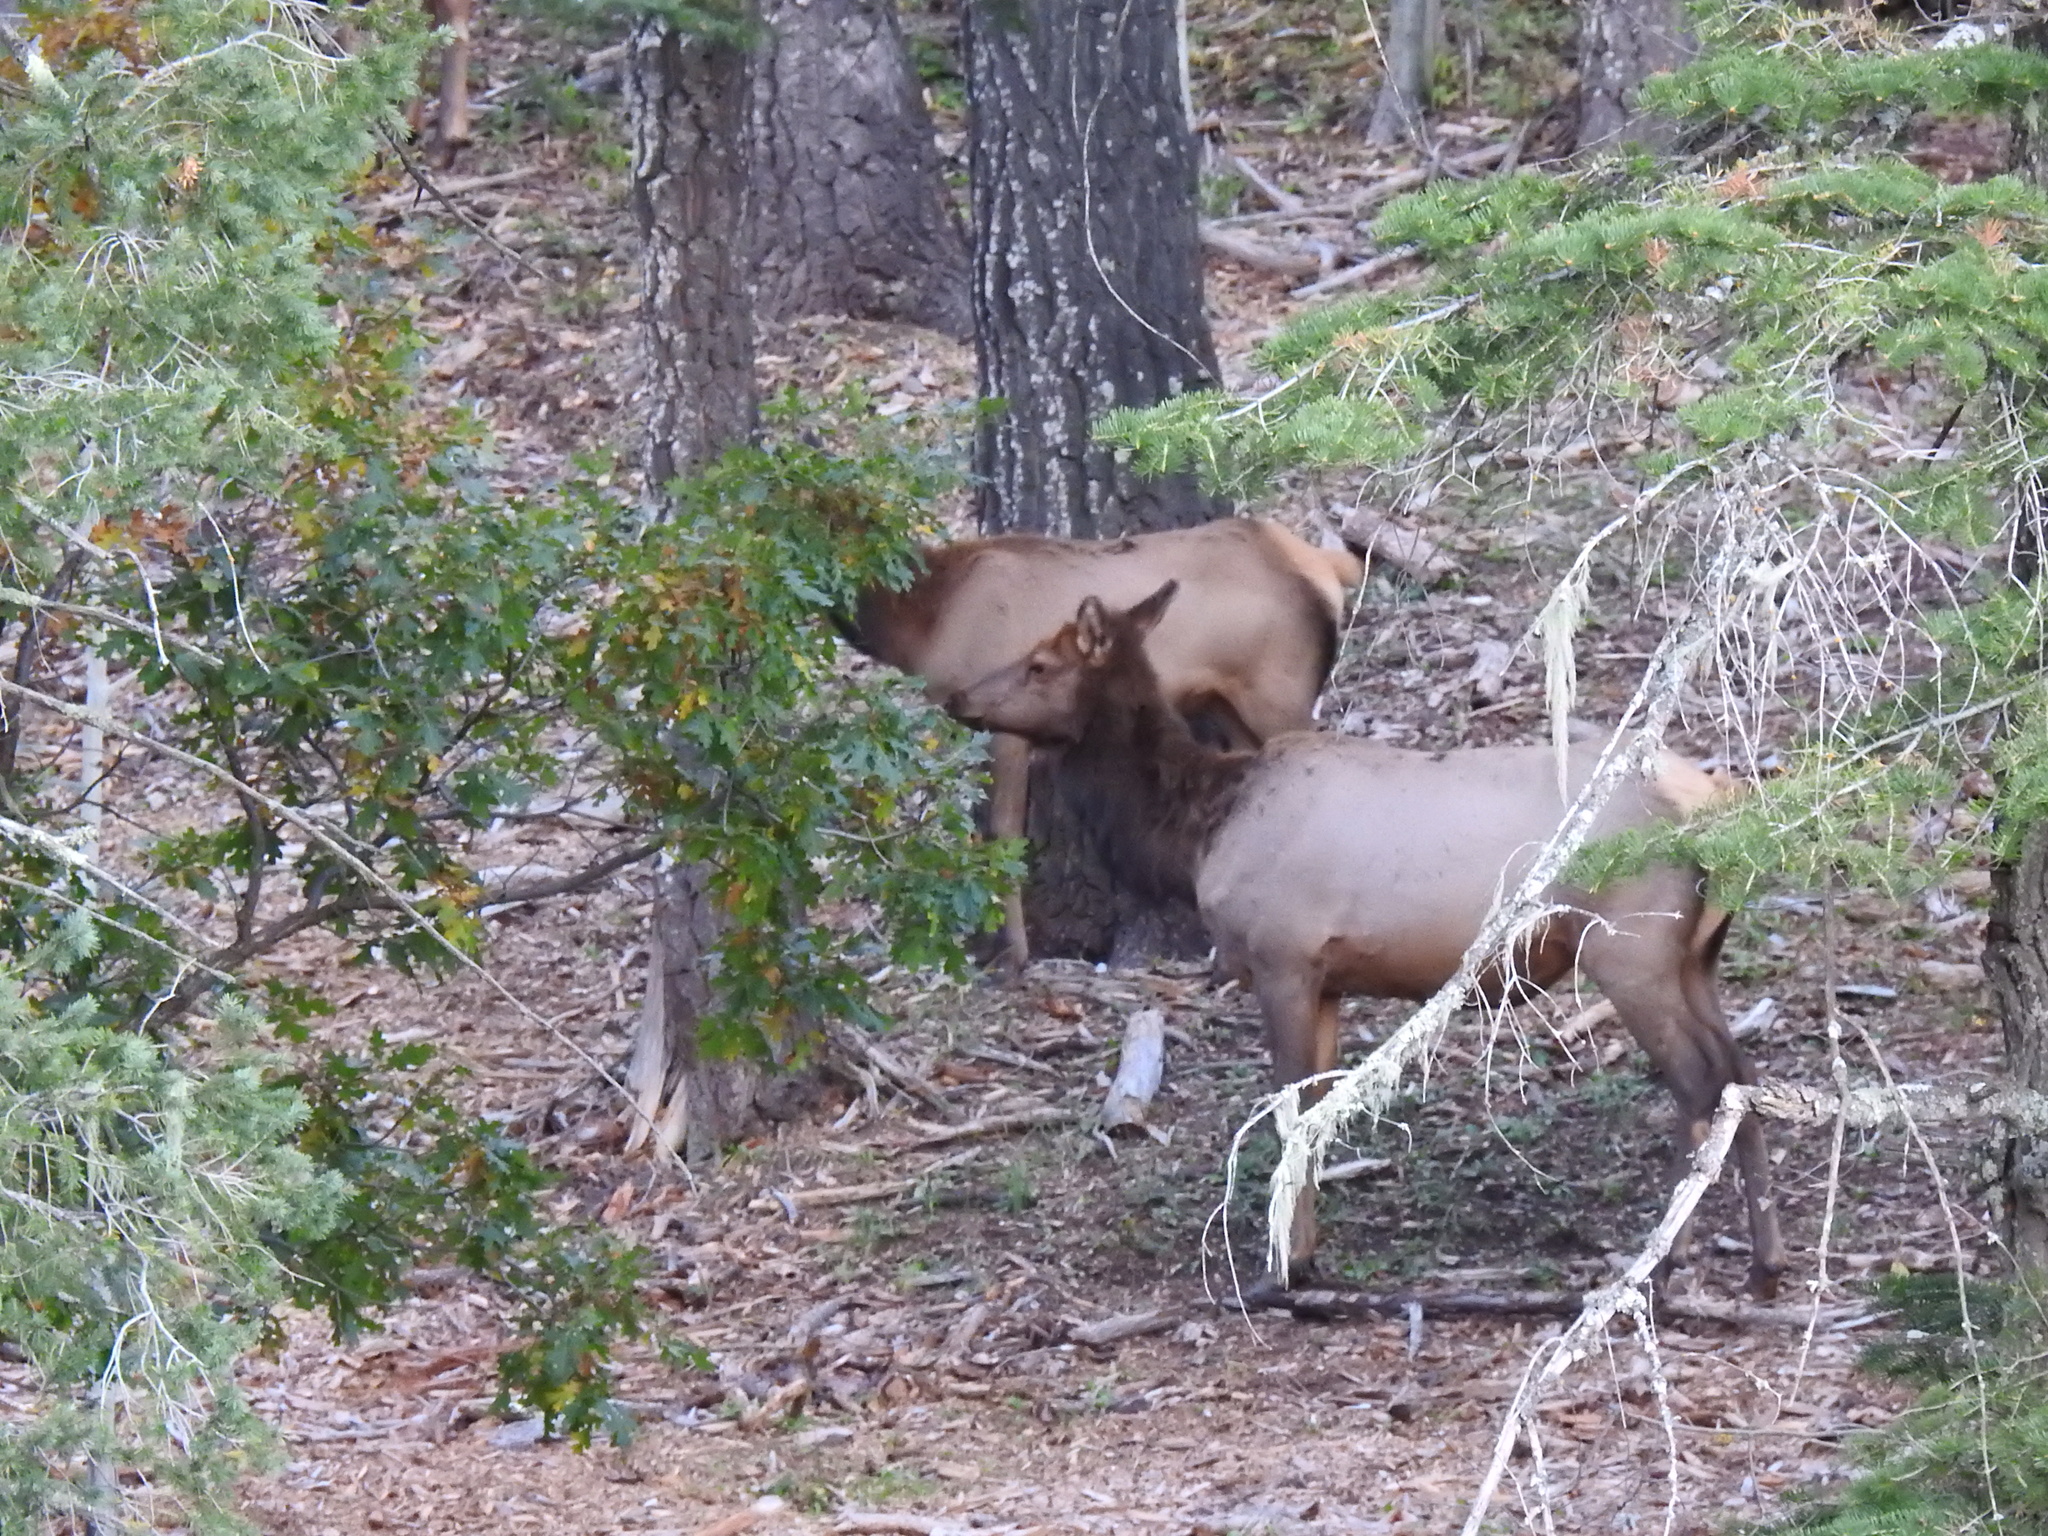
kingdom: Animalia
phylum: Chordata
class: Mammalia
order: Artiodactyla
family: Cervidae
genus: Cervus
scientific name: Cervus elaphus
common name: Red deer
